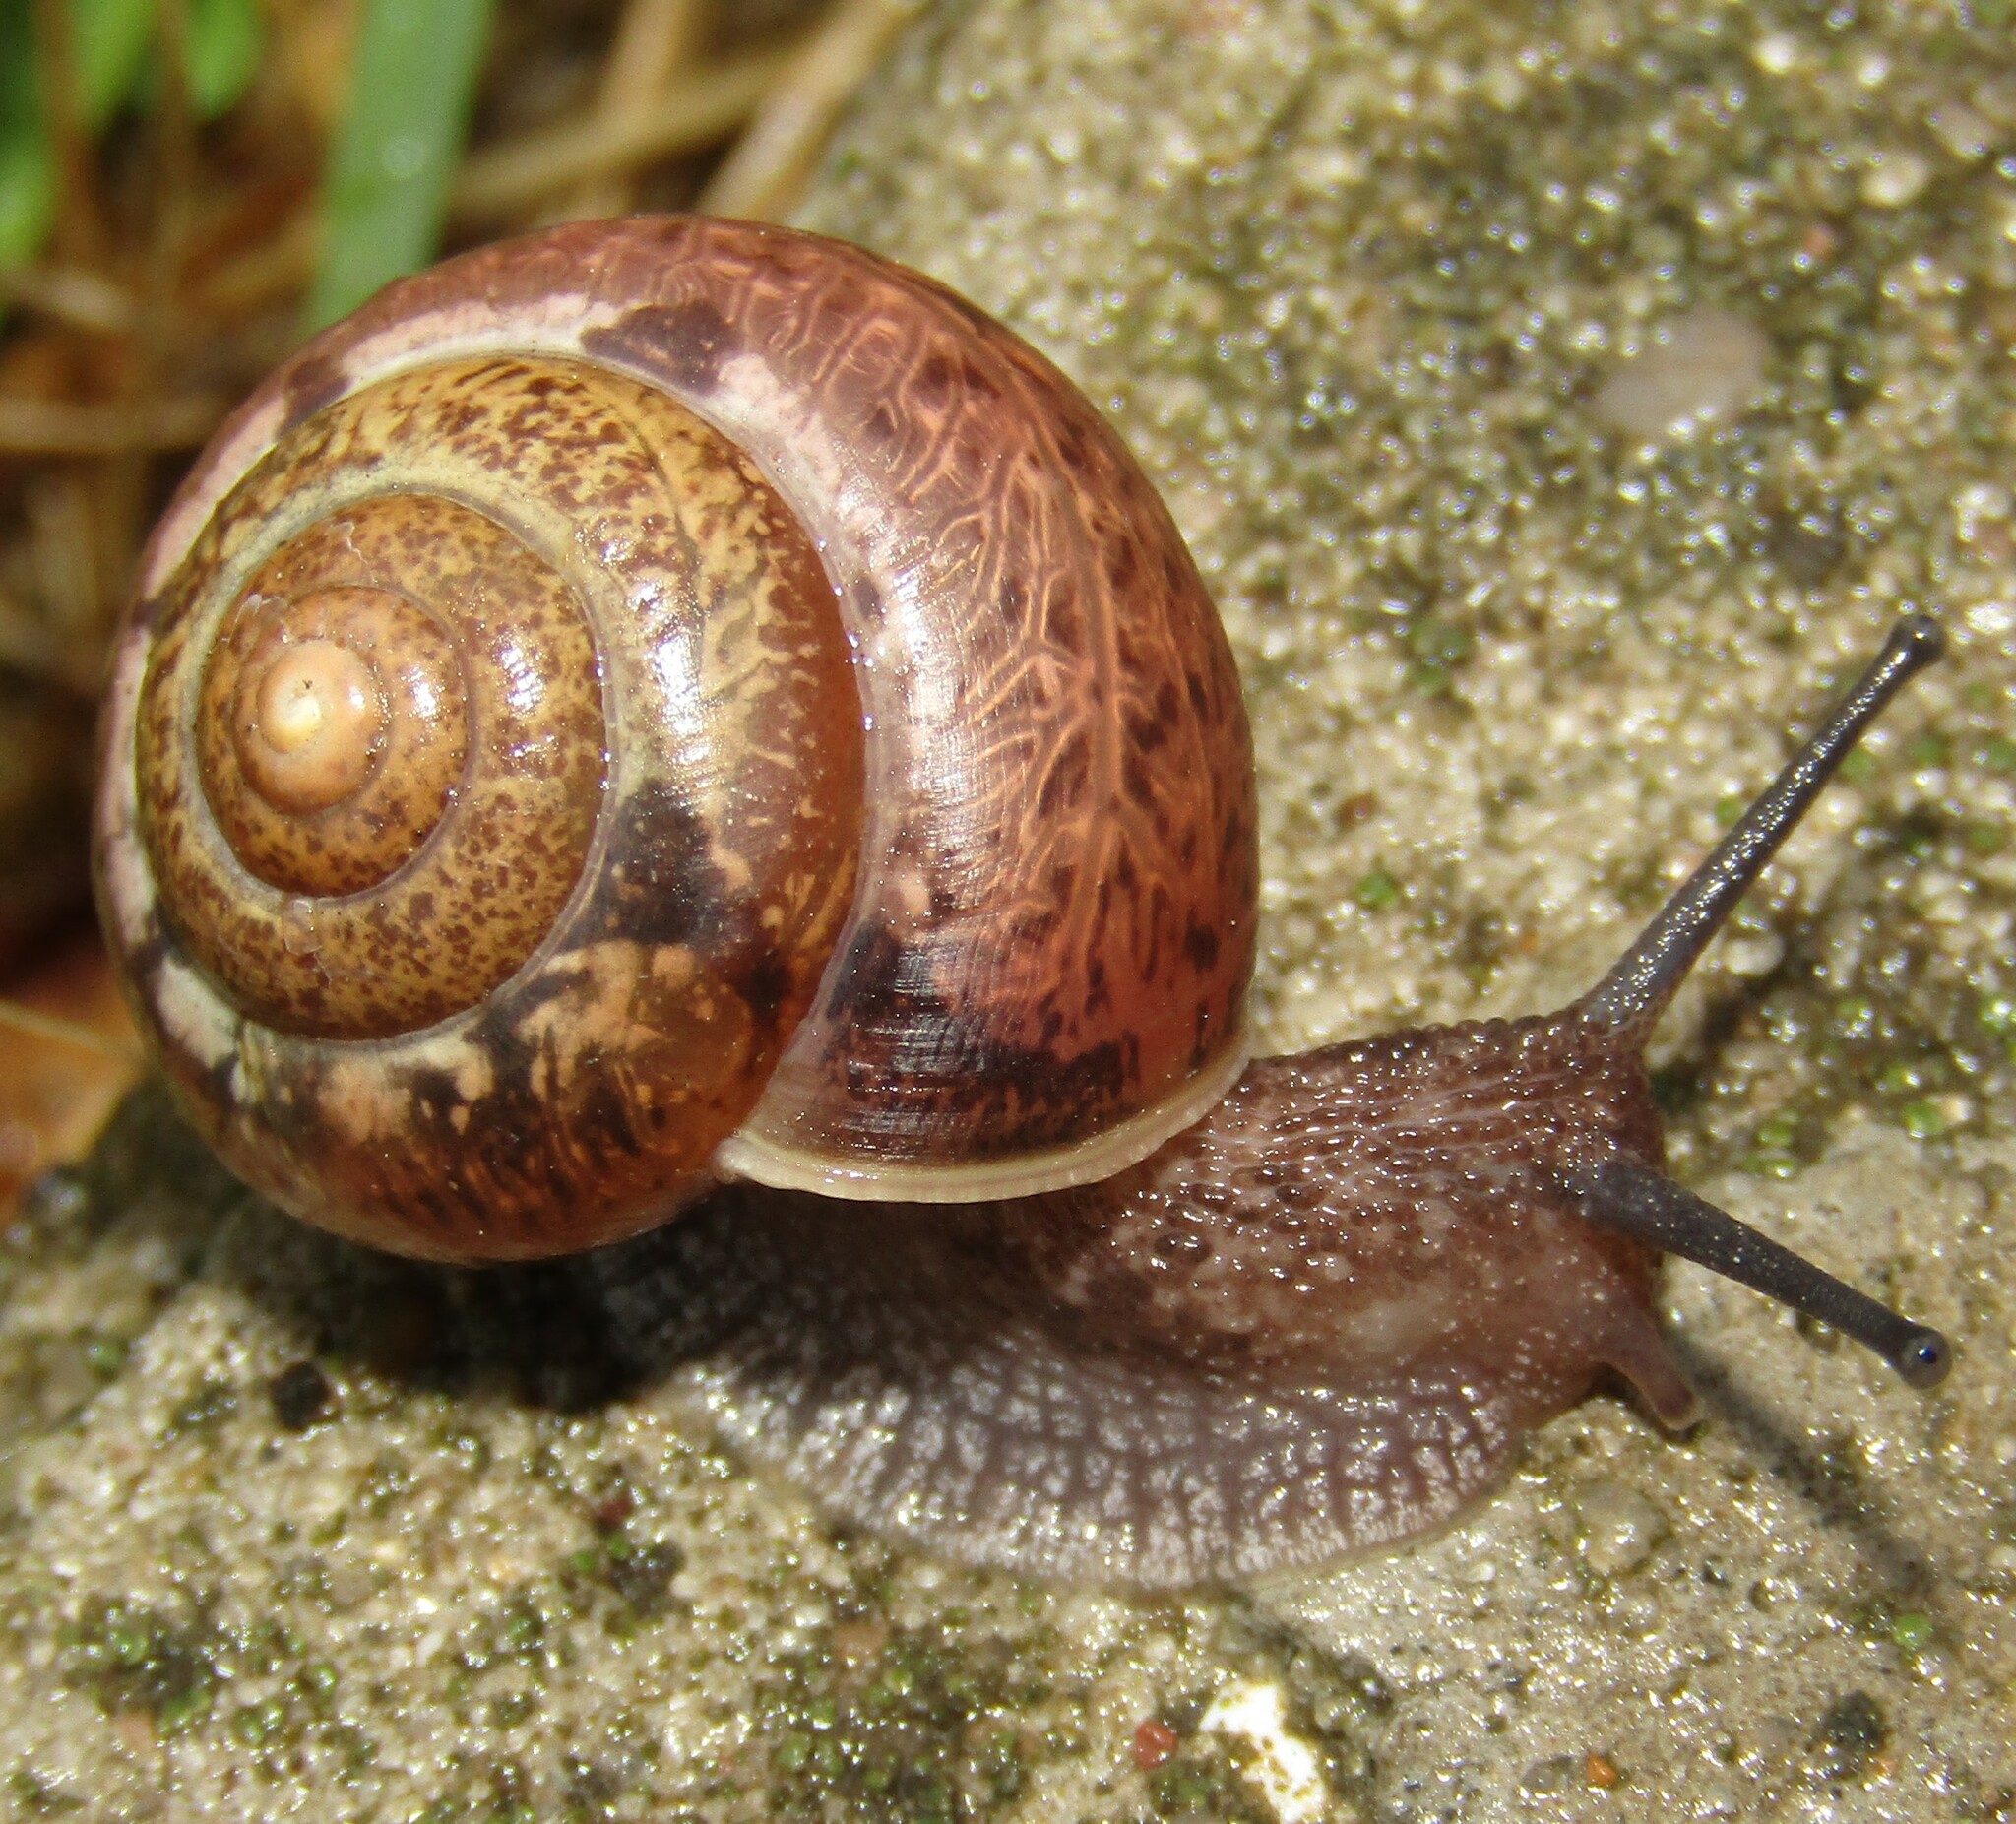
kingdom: Animalia
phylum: Mollusca
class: Gastropoda
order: Stylommatophora
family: Camaenidae
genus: Fruticicola
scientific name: Fruticicola fruticum
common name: Bush snail
